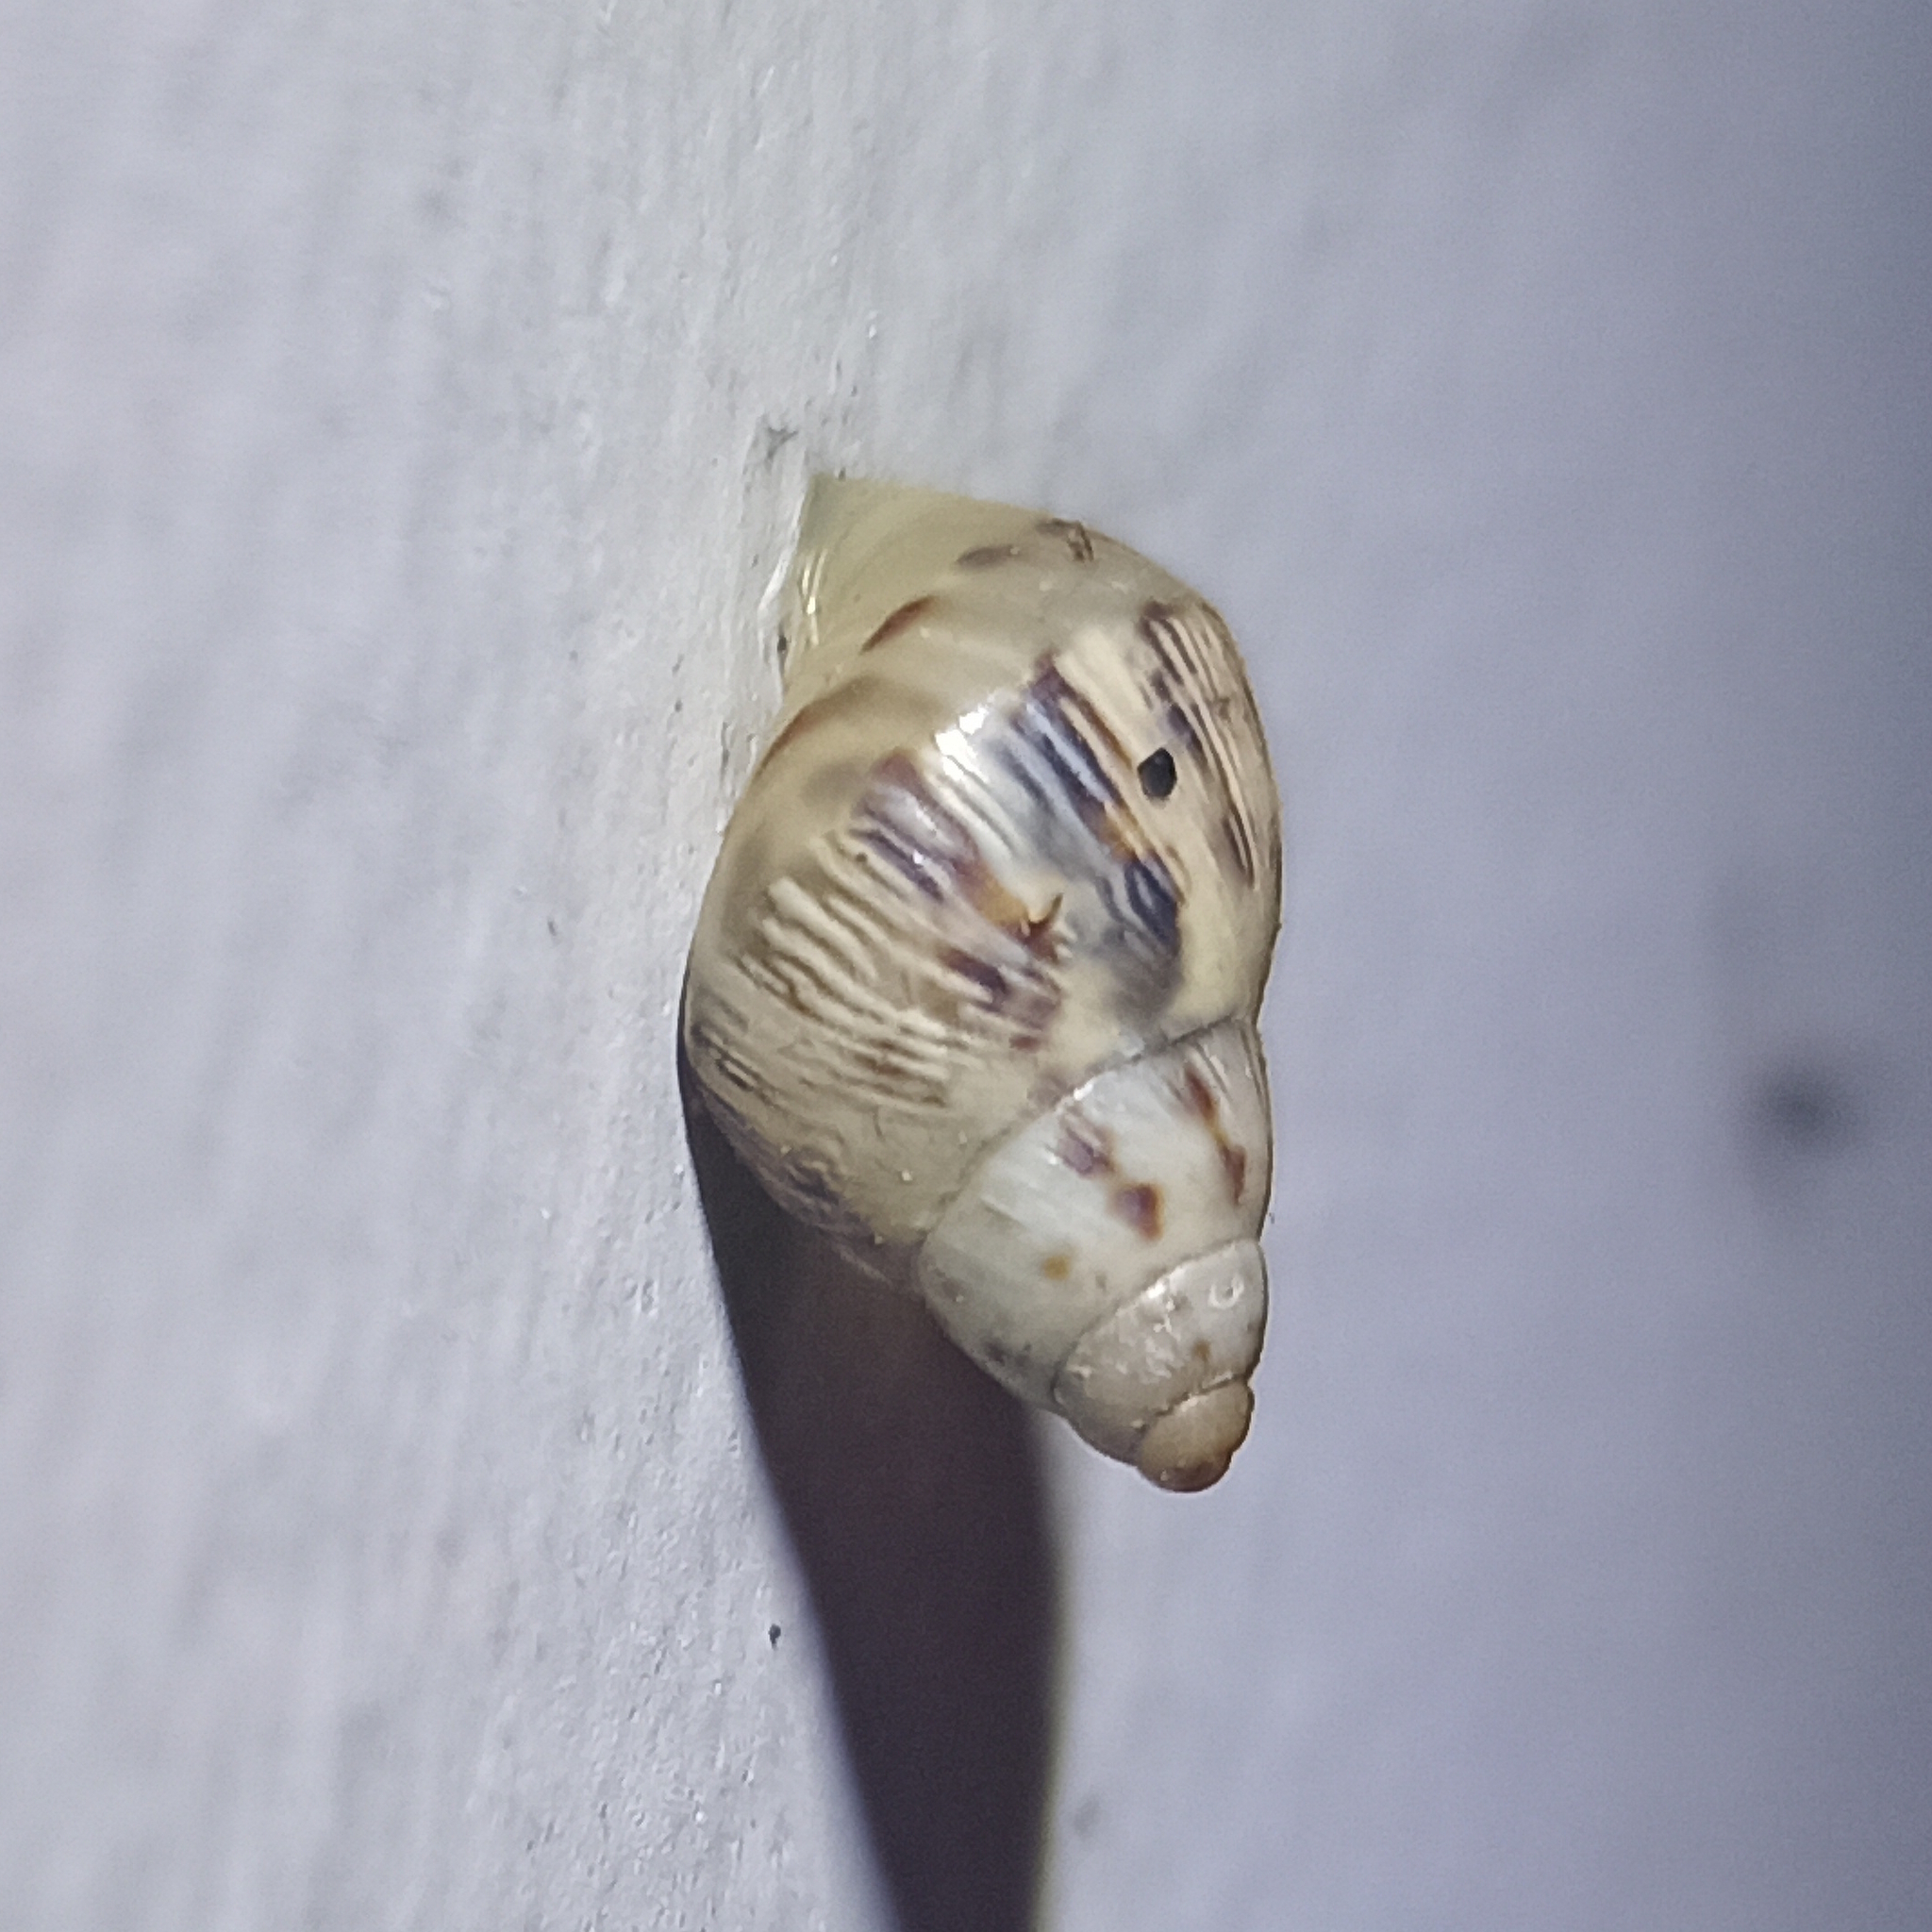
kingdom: Animalia
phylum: Mollusca
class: Gastropoda
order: Stylommatophora
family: Bulimulidae
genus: Drymaeus
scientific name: Drymaeus papyraceus
